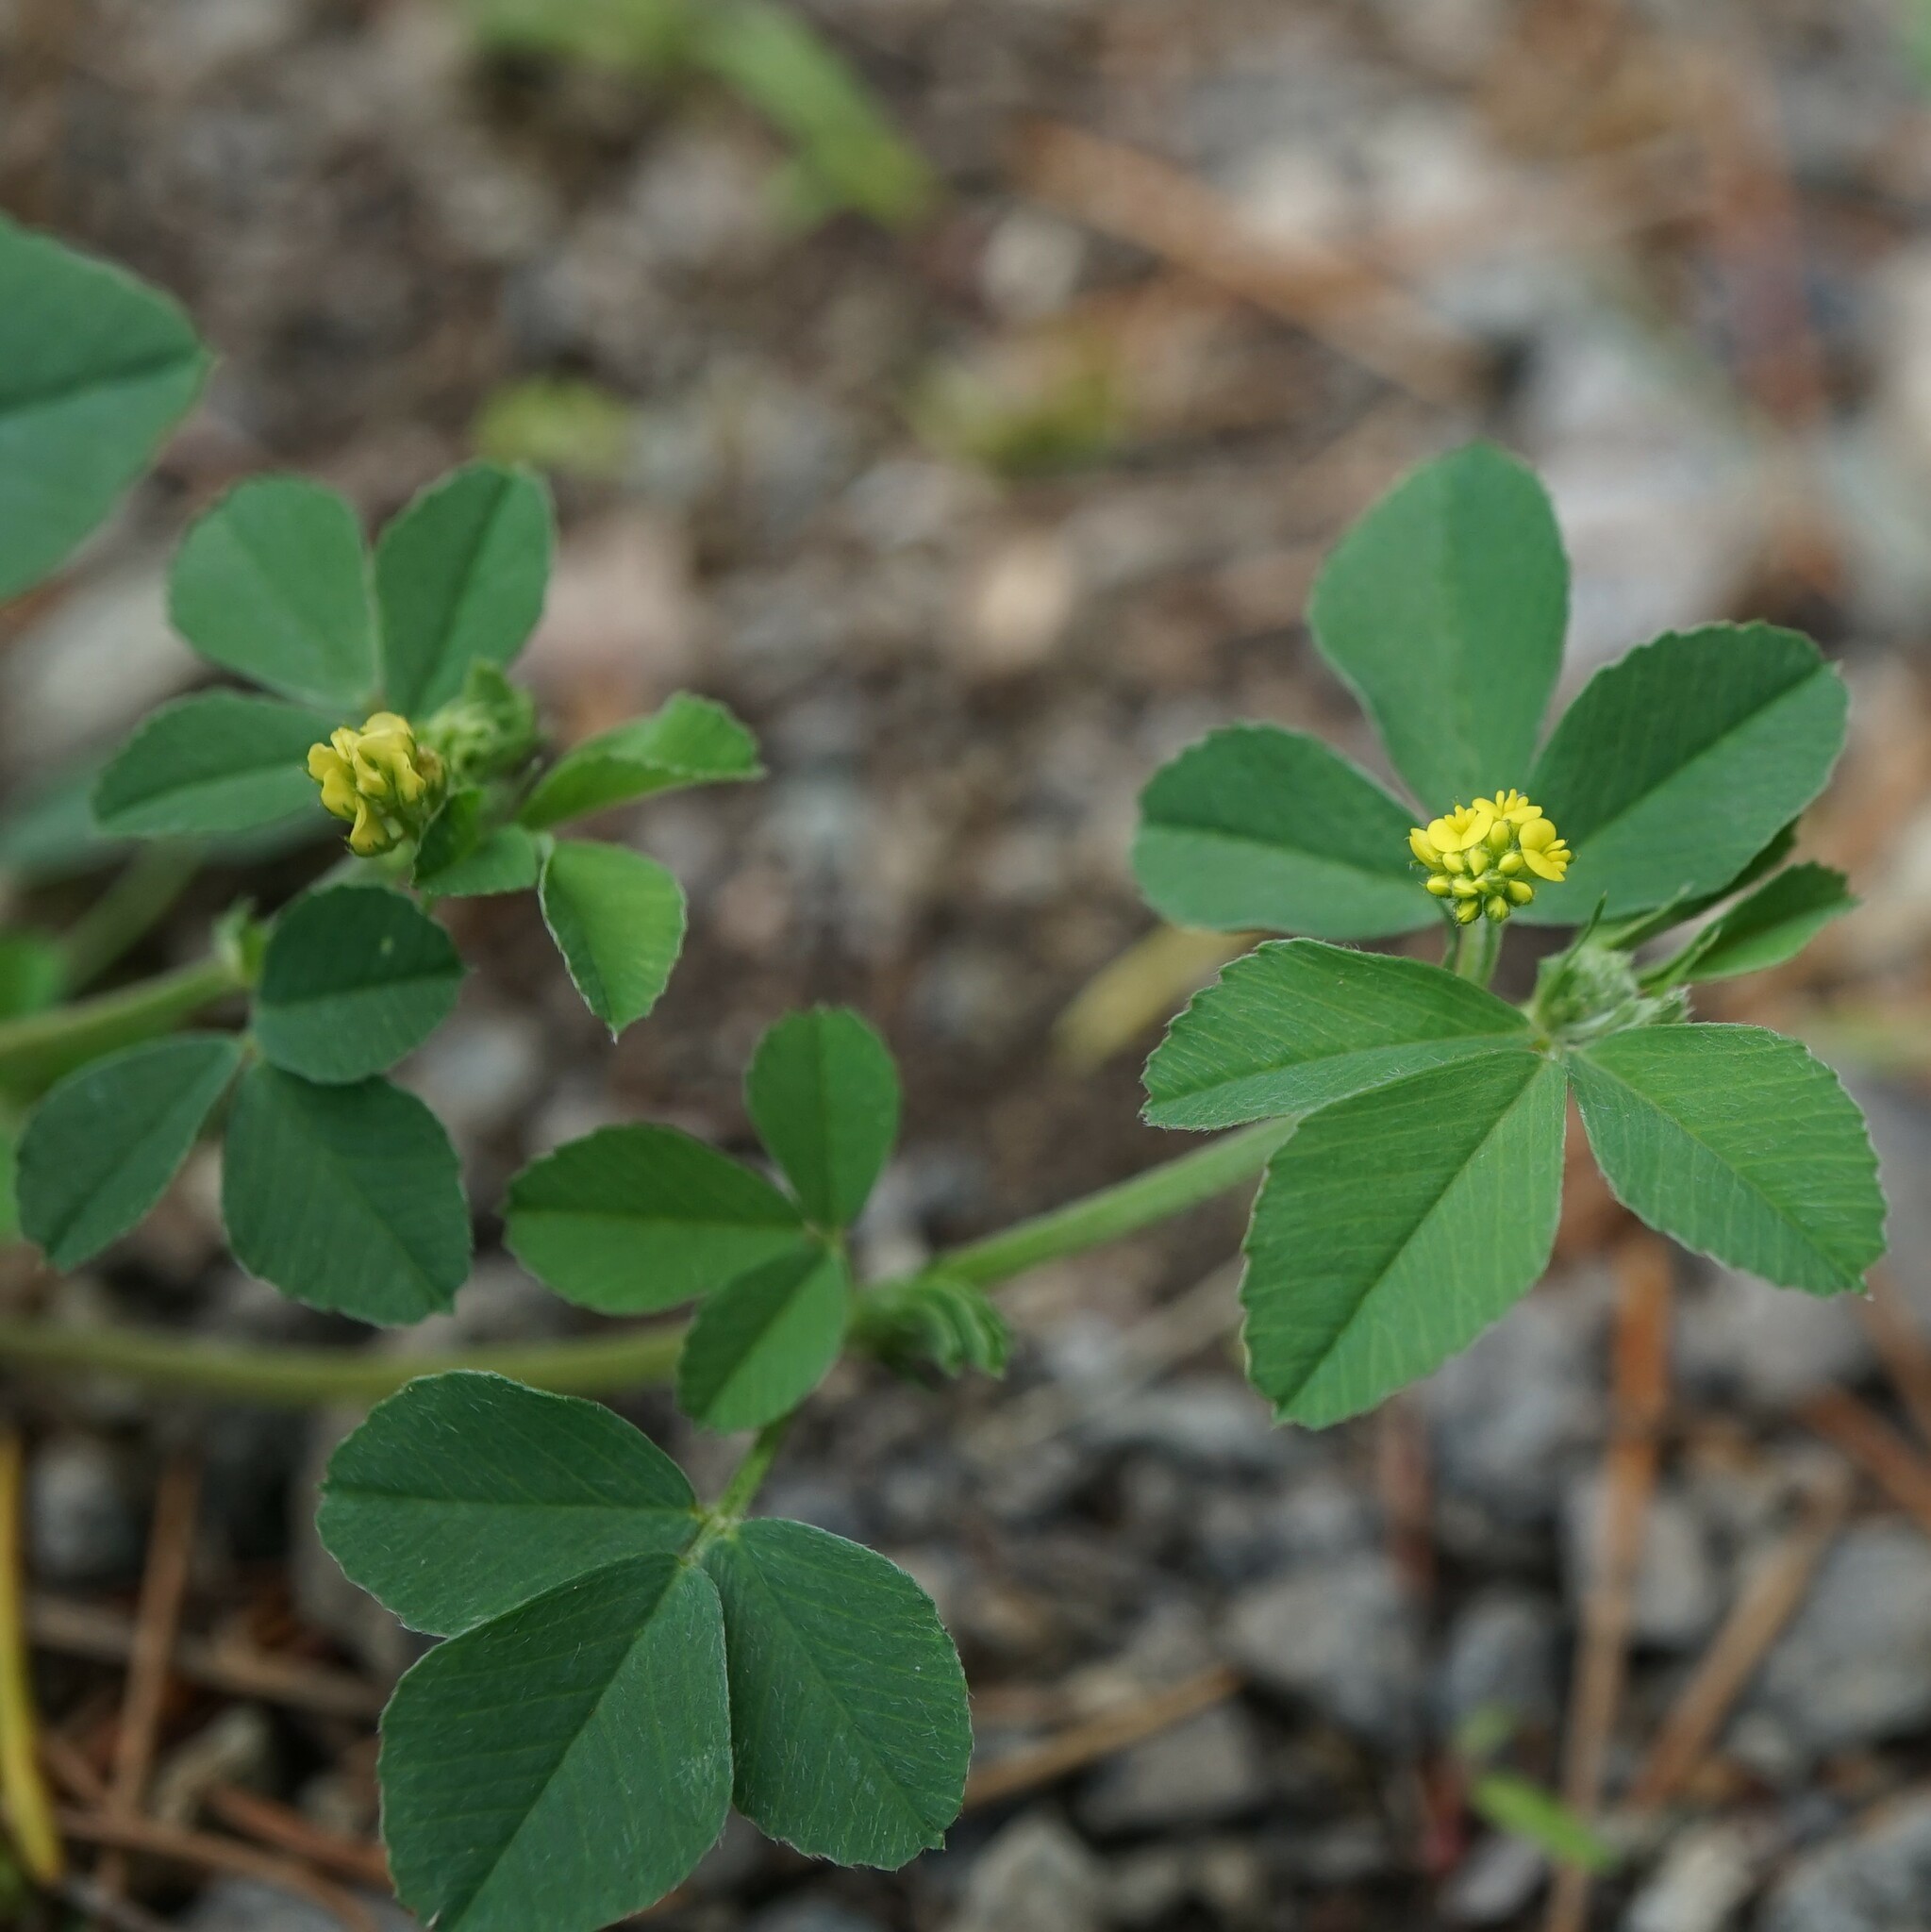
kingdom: Plantae
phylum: Tracheophyta
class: Magnoliopsida
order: Fabales
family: Fabaceae
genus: Medicago
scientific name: Medicago lupulina
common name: Black medick
